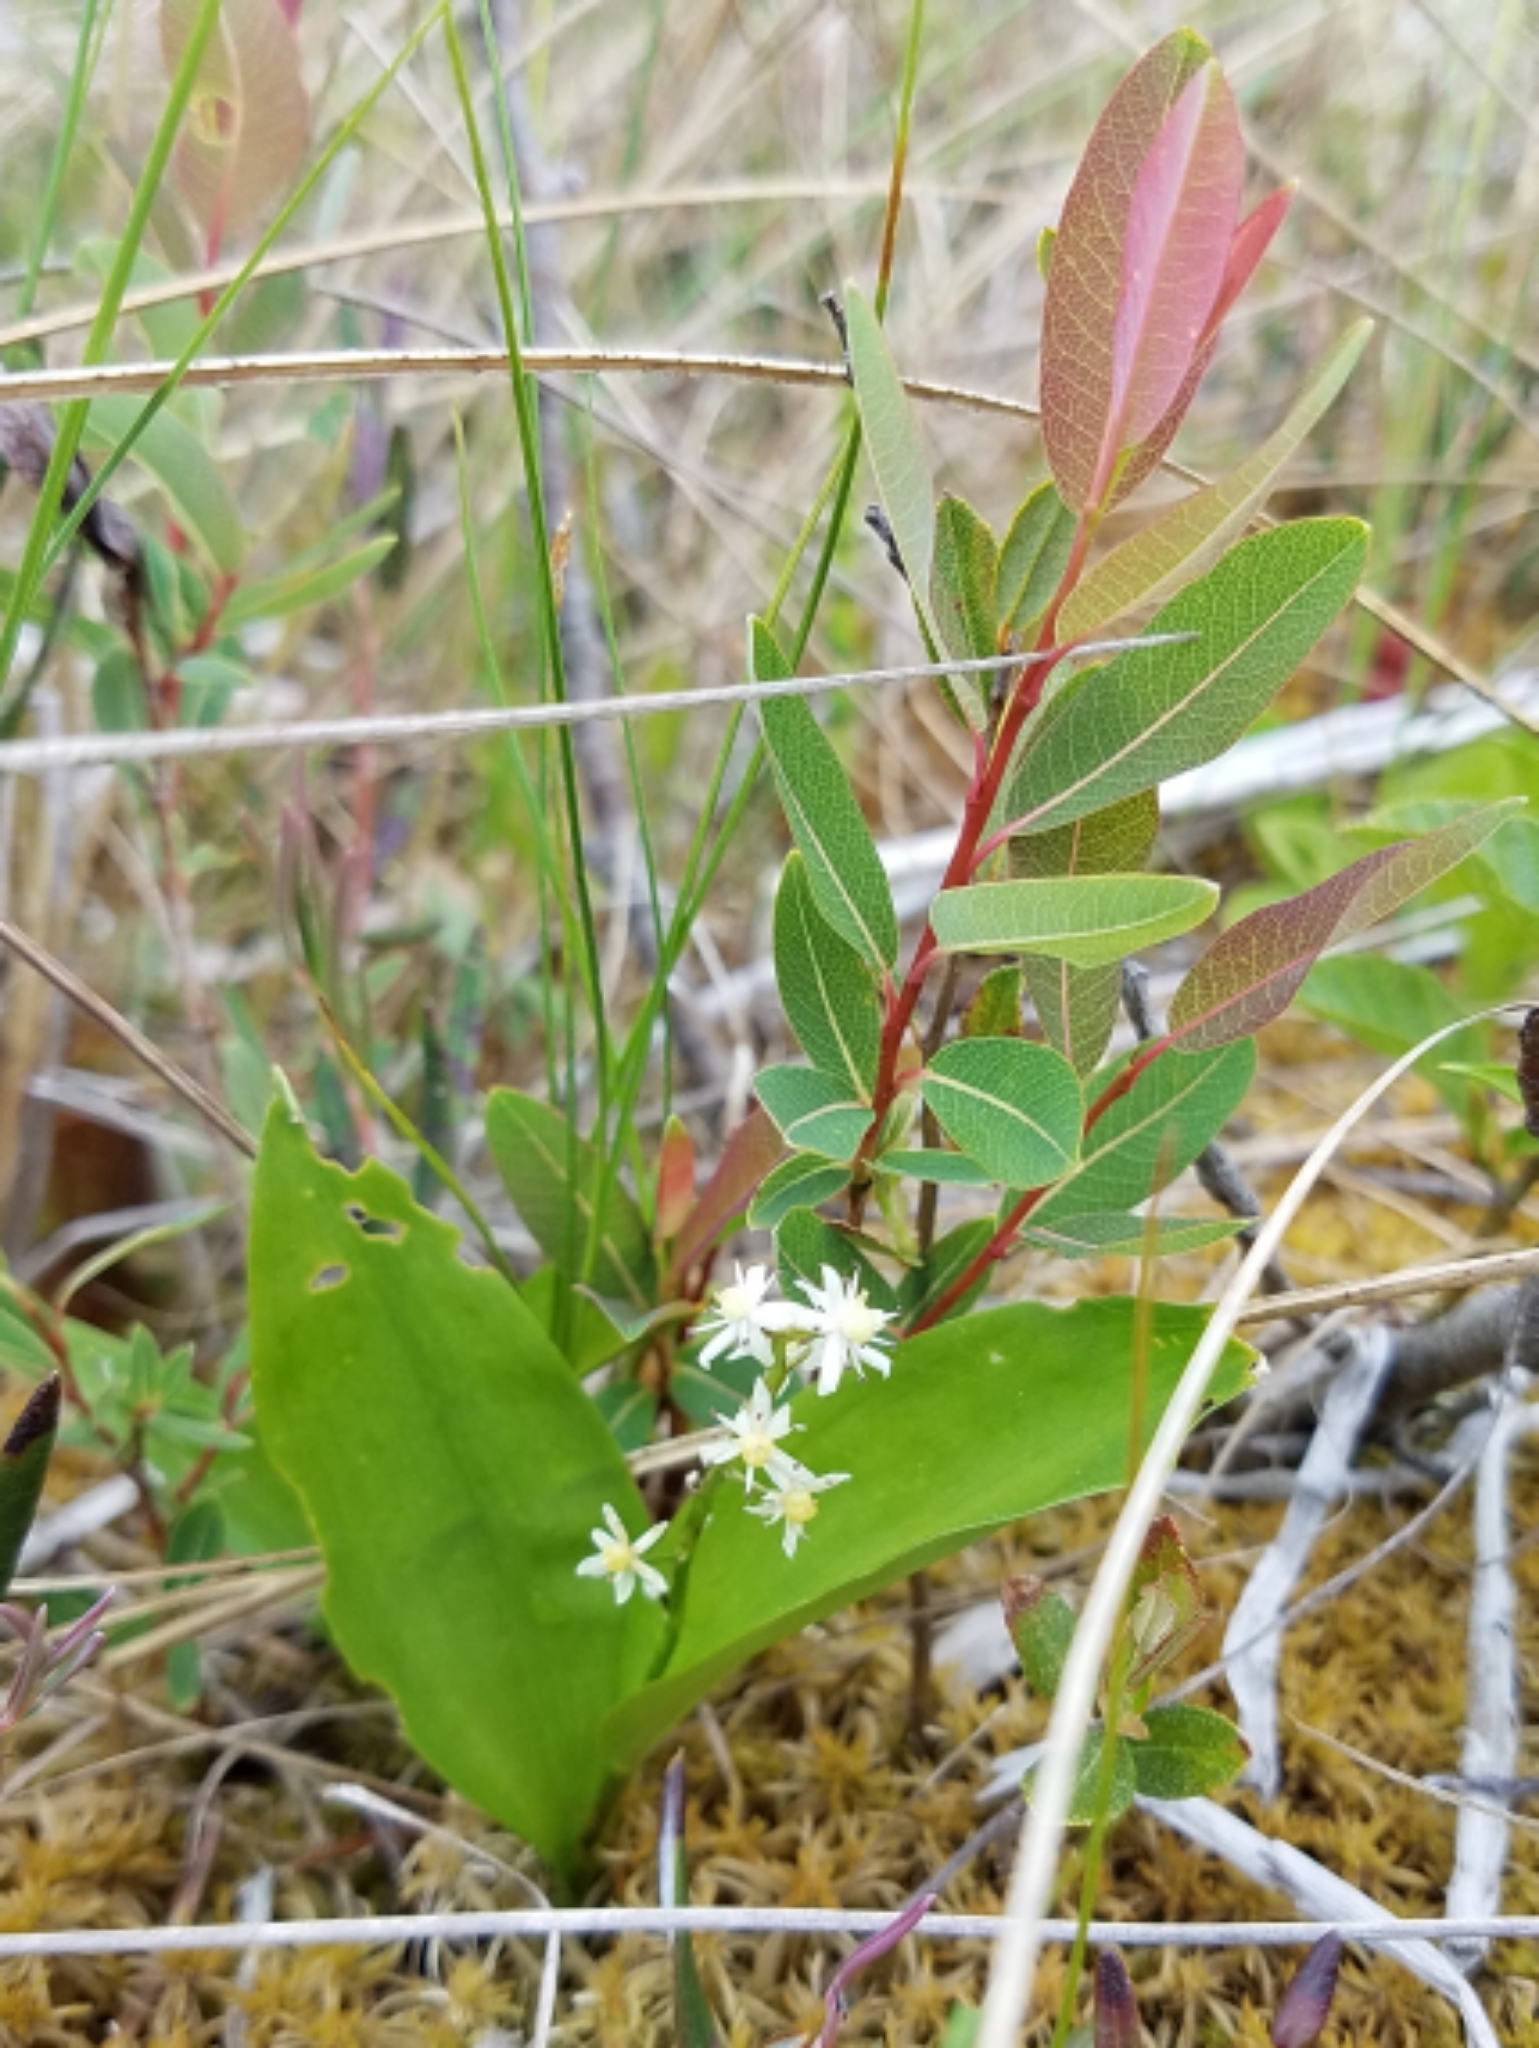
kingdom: Plantae
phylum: Tracheophyta
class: Liliopsida
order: Asparagales
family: Asparagaceae
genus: Maianthemum
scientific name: Maianthemum trifolium
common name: Swamp false solomon's seal
